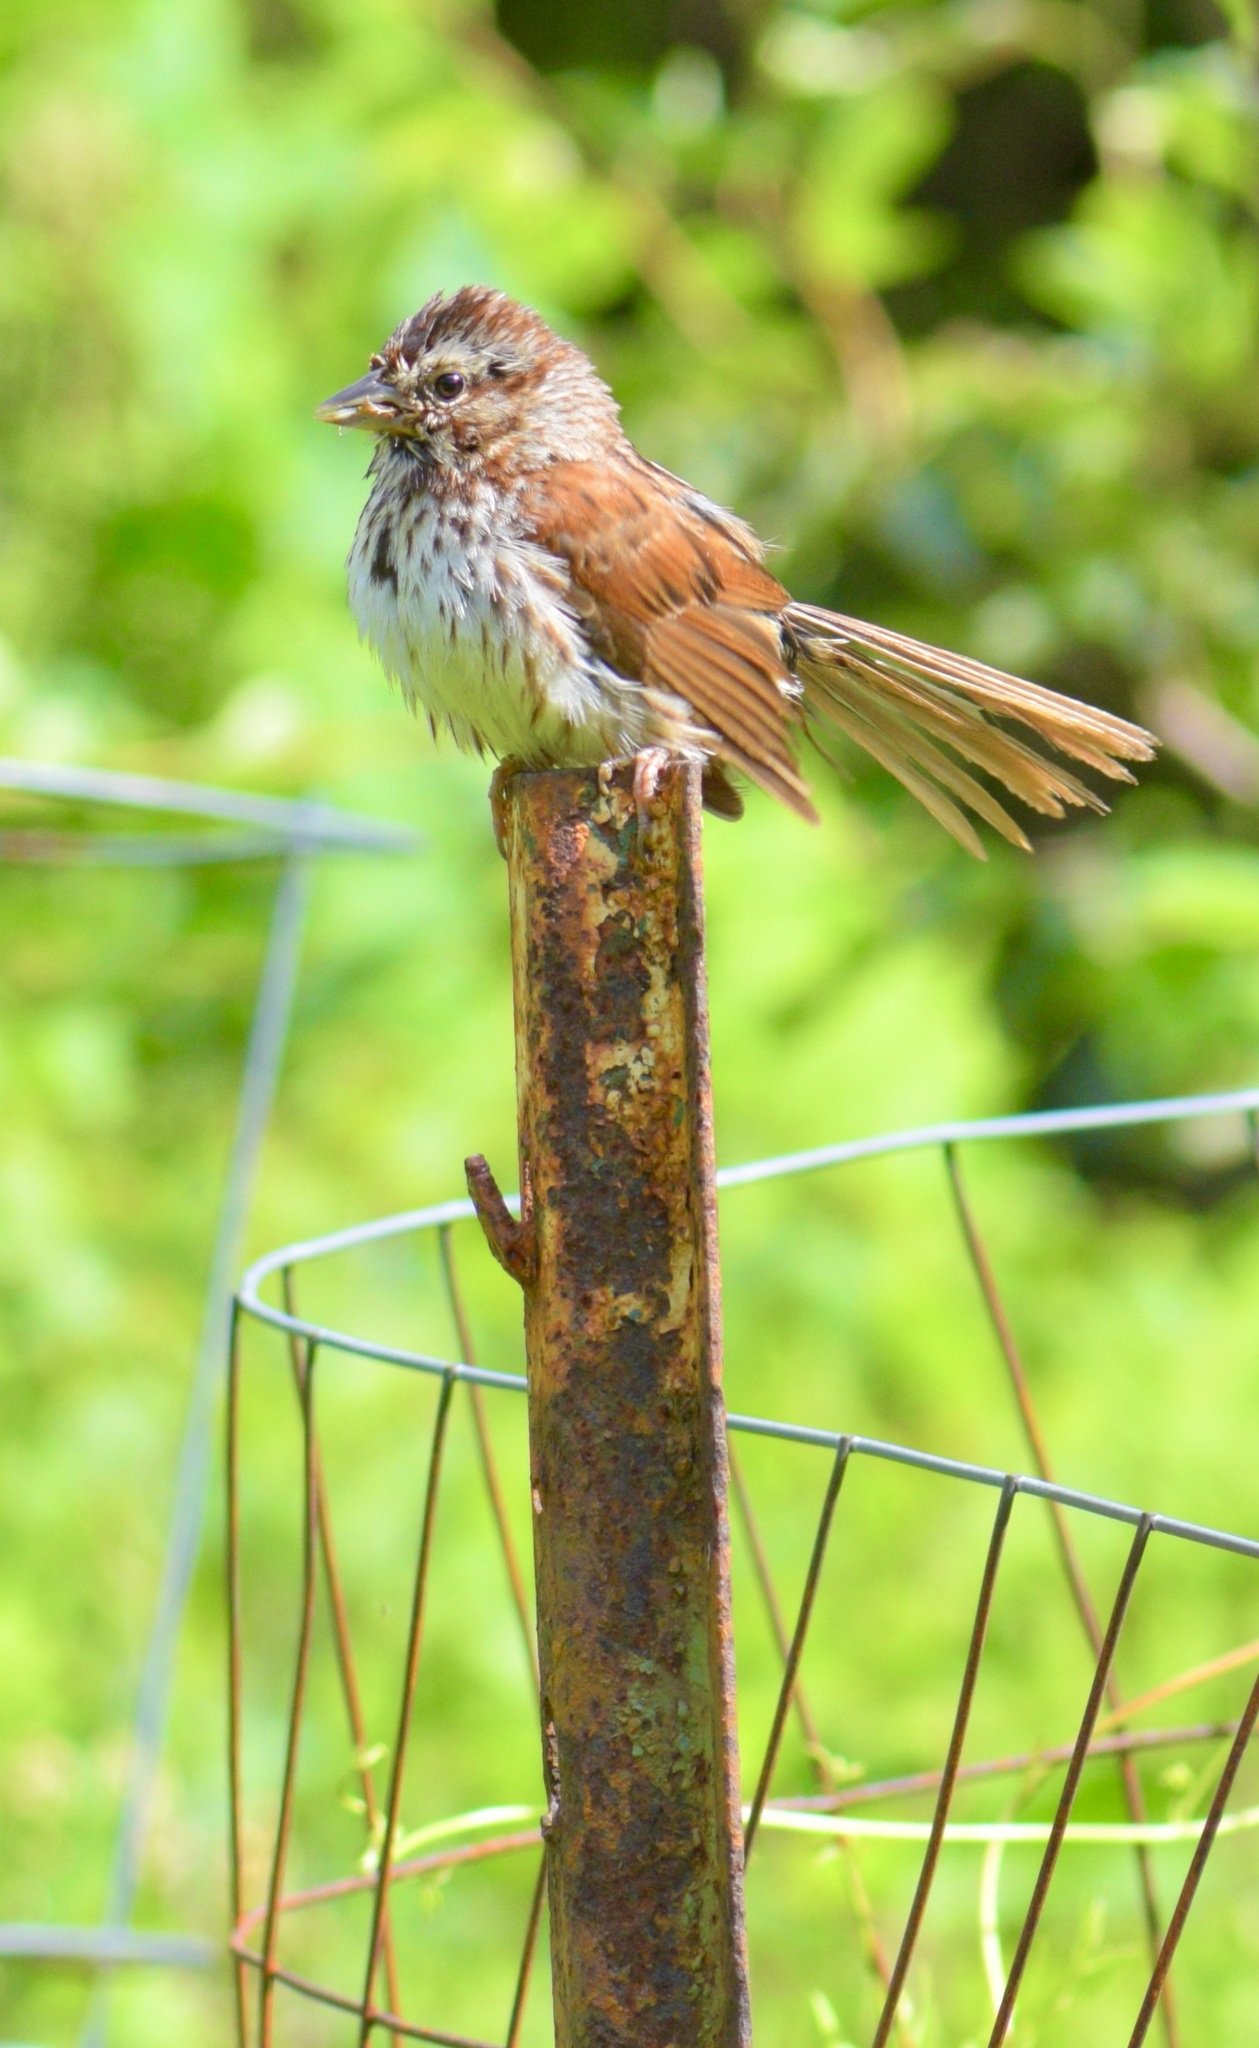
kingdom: Animalia
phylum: Chordata
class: Aves
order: Passeriformes
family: Passerellidae
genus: Melospiza
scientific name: Melospiza melodia
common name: Song sparrow
